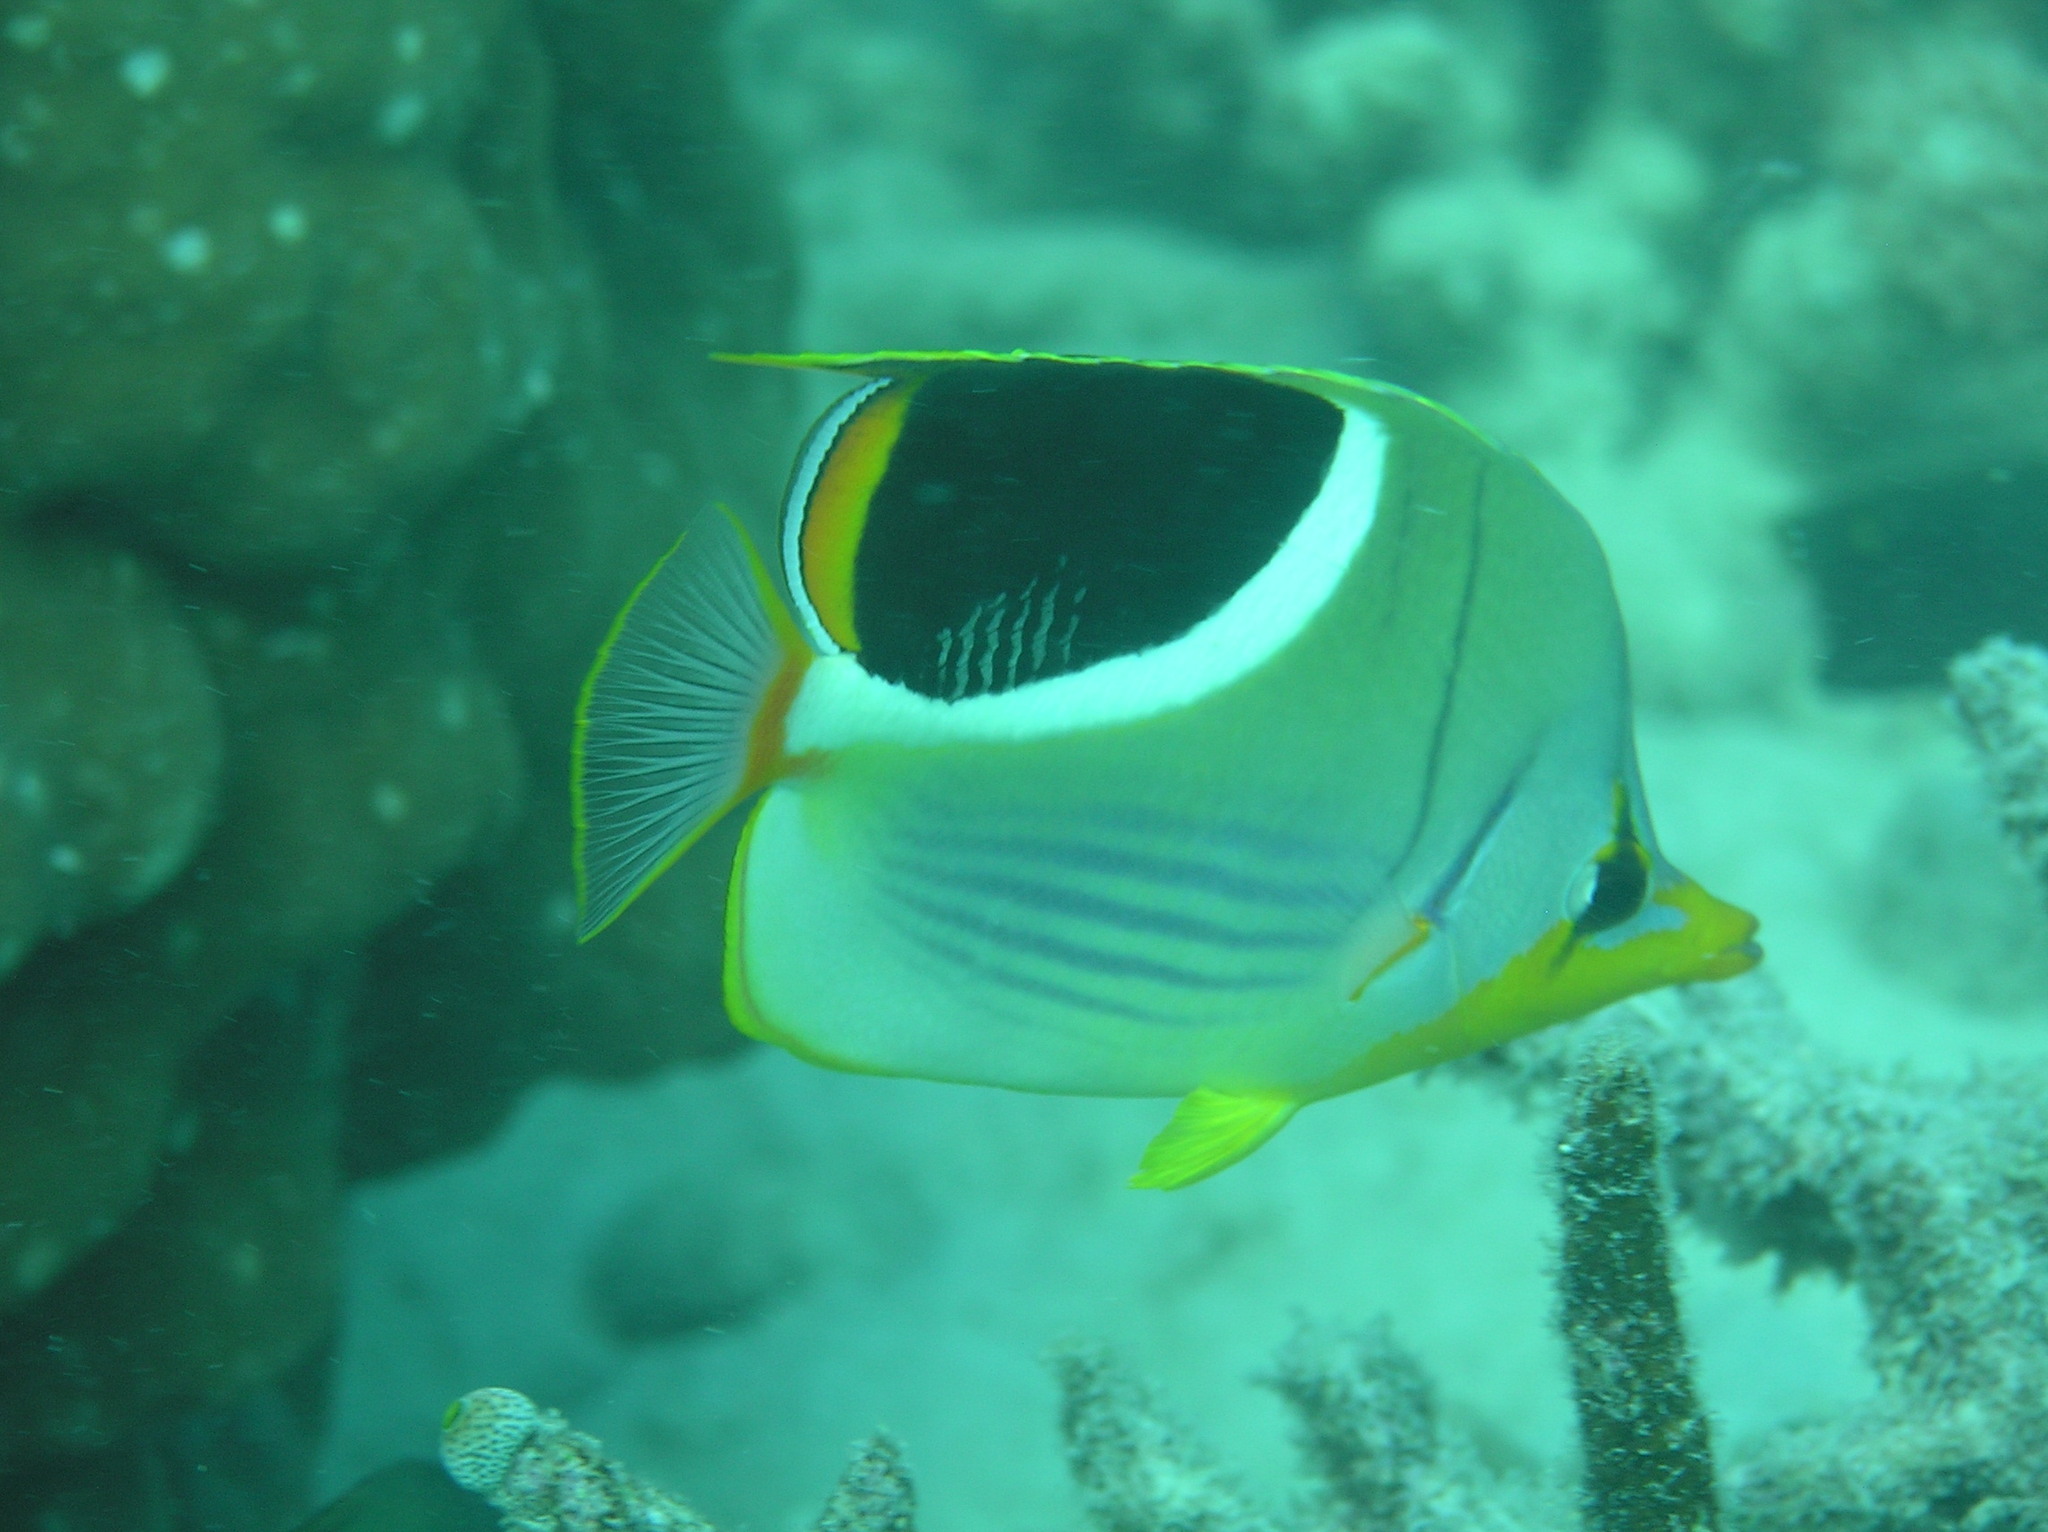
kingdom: Animalia
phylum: Chordata
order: Perciformes
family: Chaetodontidae
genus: Chaetodon
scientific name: Chaetodon ephippium
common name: Saddled butterflyfish
